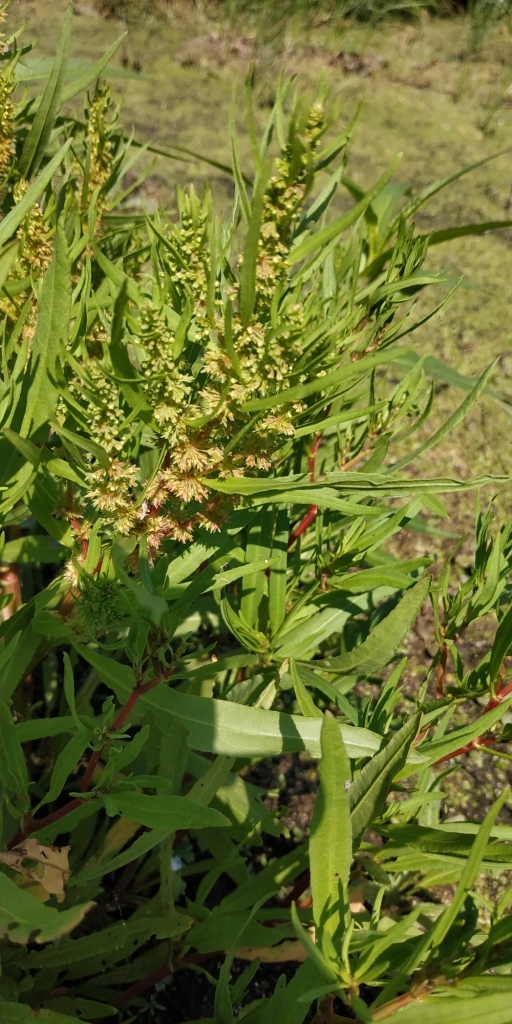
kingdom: Plantae
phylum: Tracheophyta
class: Magnoliopsida
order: Caryophyllales
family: Polygonaceae
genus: Rumex
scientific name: Rumex maritimus
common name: Golden dock
